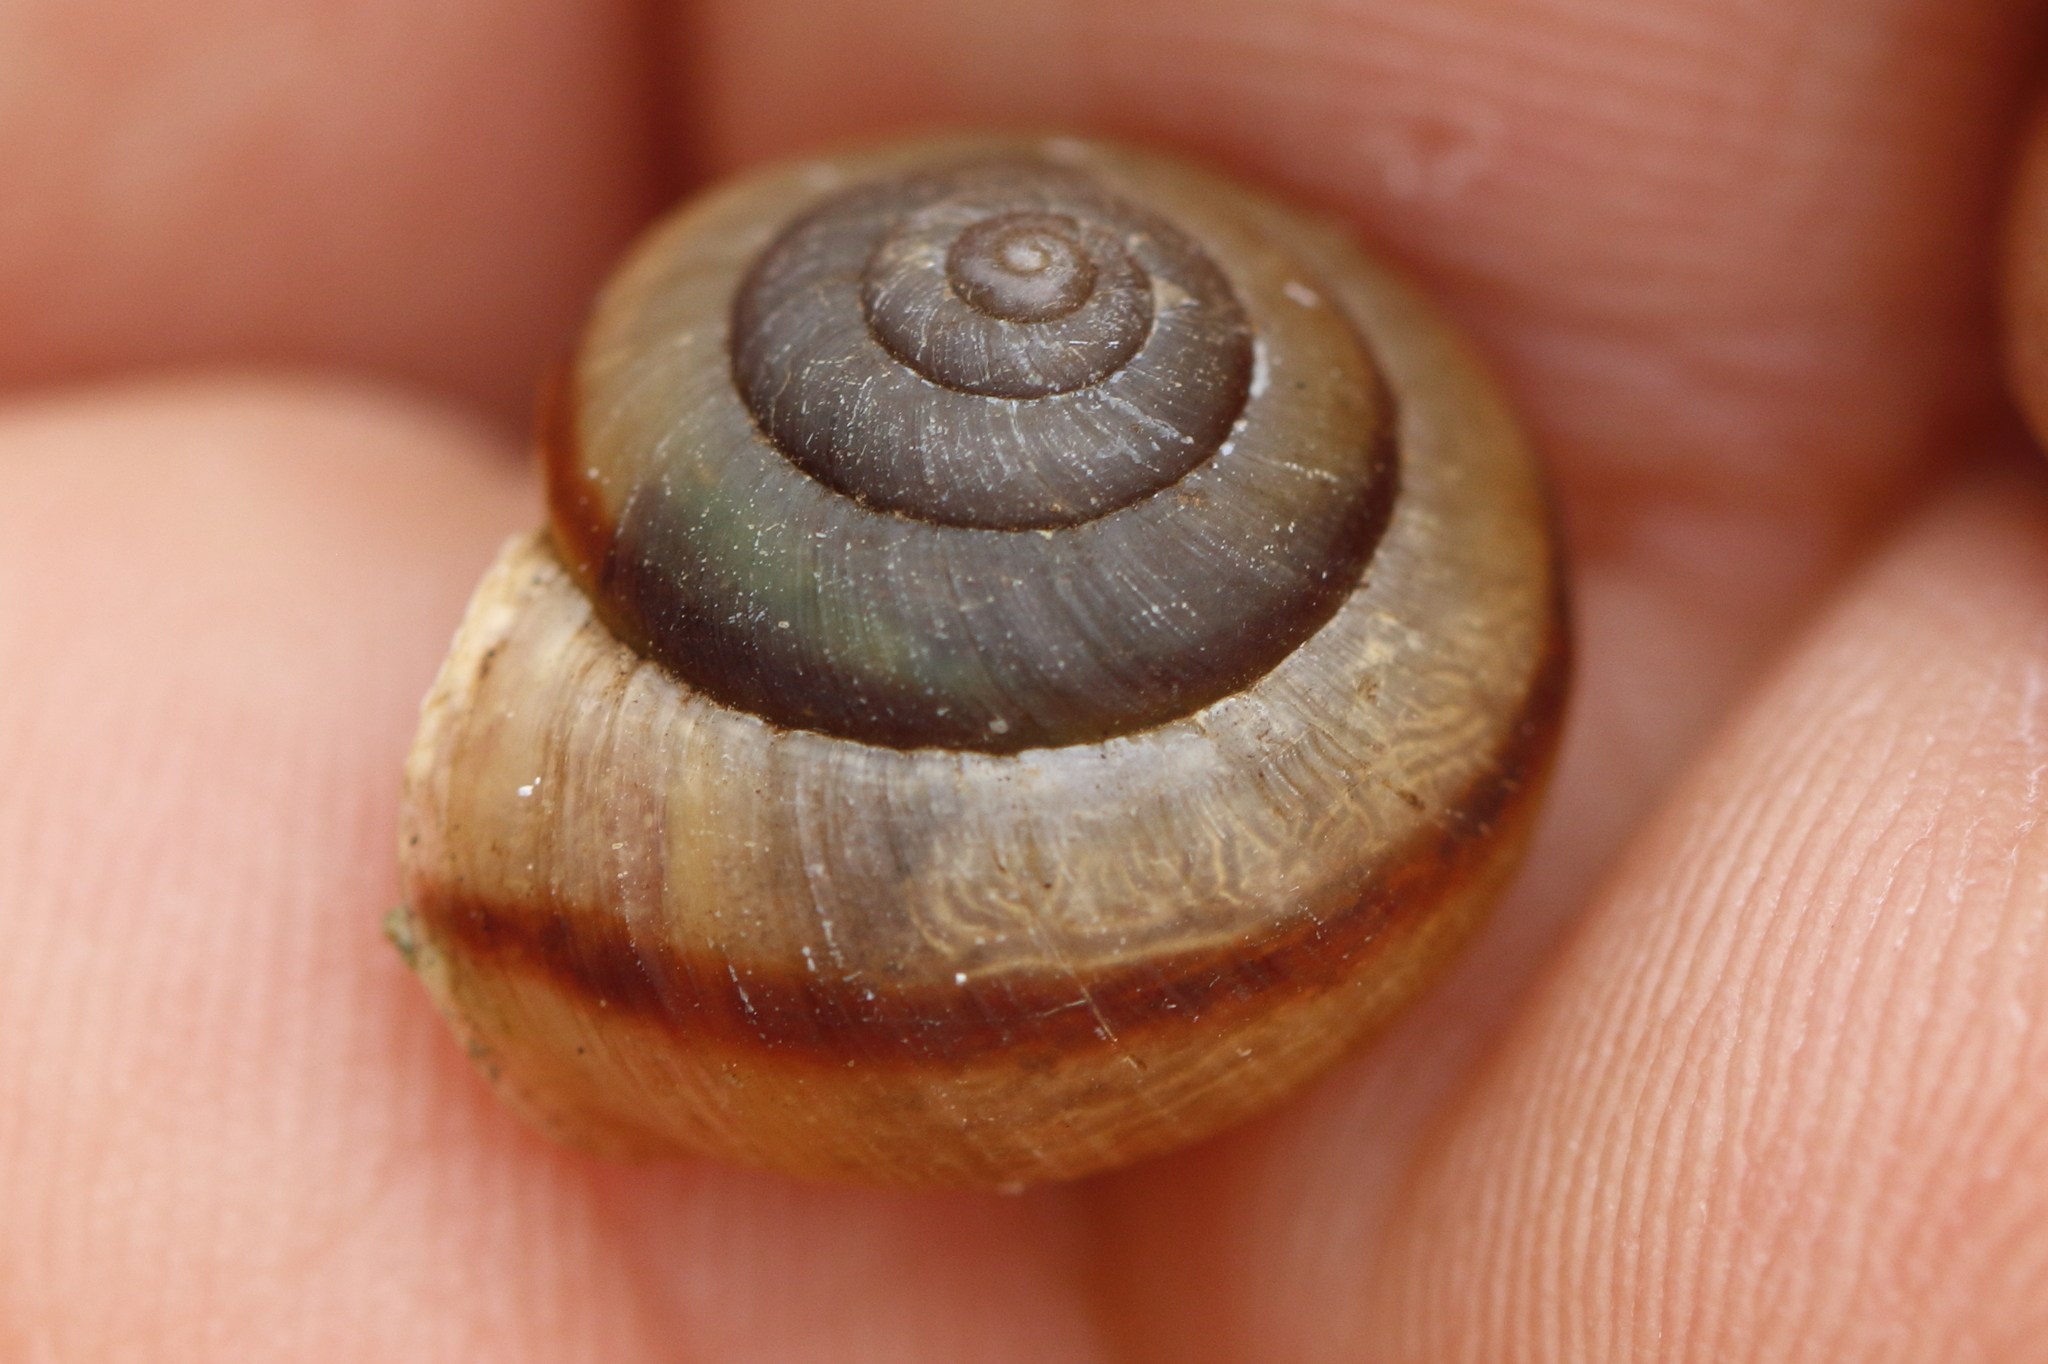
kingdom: Animalia
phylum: Mollusca
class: Gastropoda
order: Stylommatophora
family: Camaenidae
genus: Bradybaena
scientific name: Bradybaena similaris
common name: Asian trampsnail
